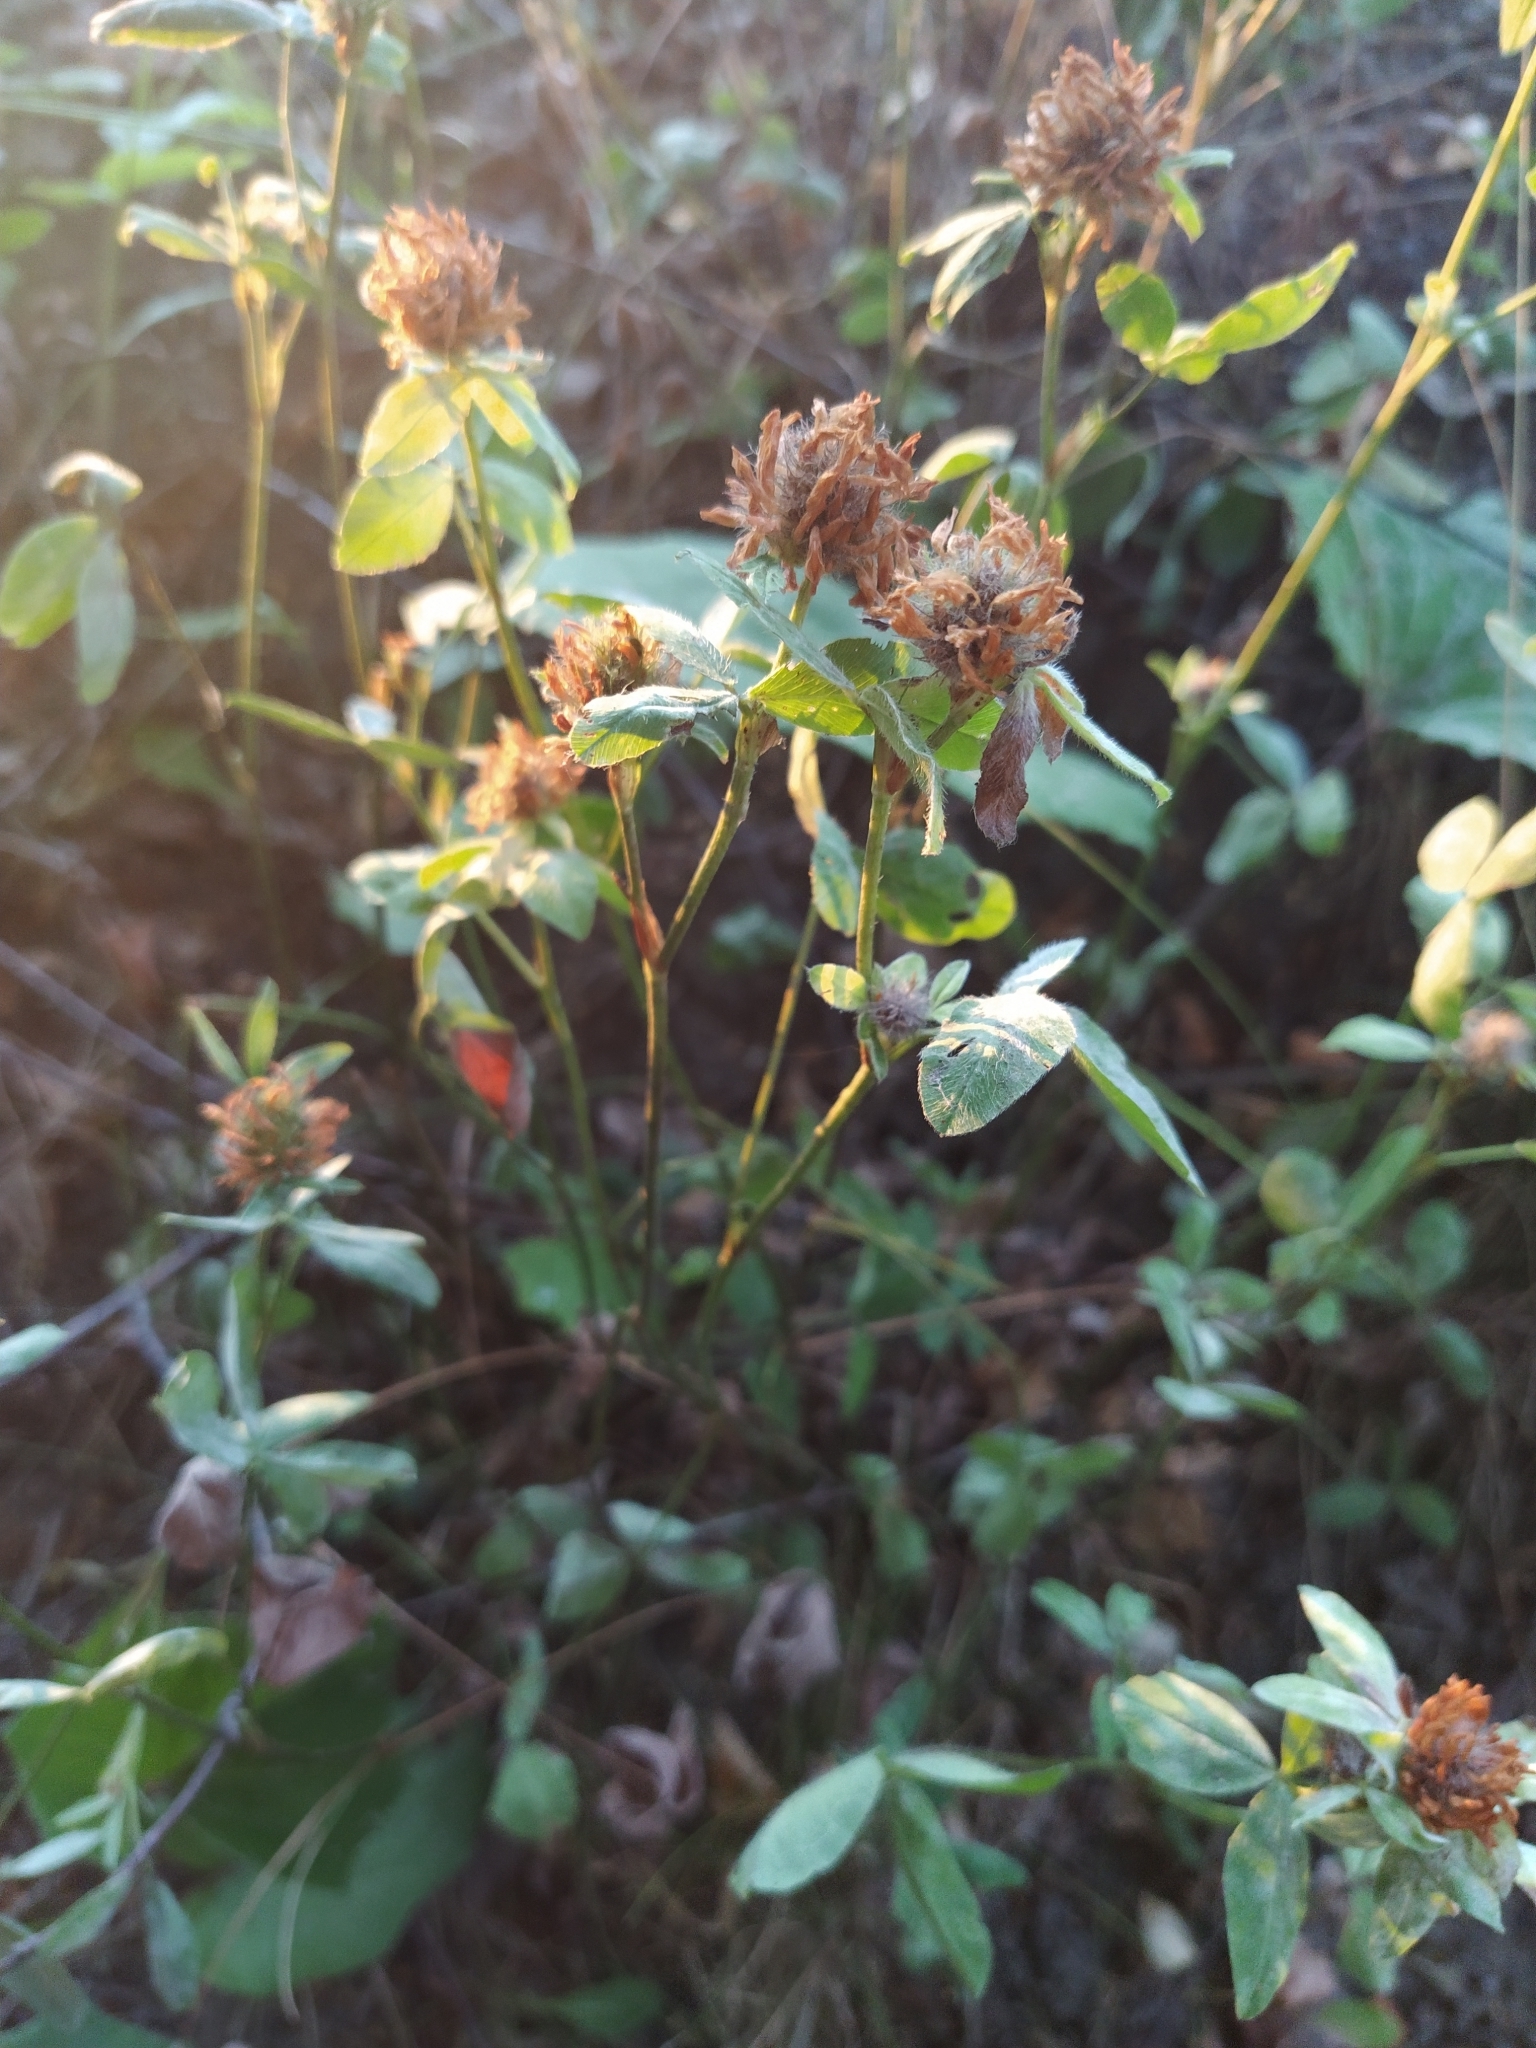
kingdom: Plantae
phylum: Tracheophyta
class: Magnoliopsida
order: Fabales
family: Fabaceae
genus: Trifolium
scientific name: Trifolium pratense
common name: Red clover
